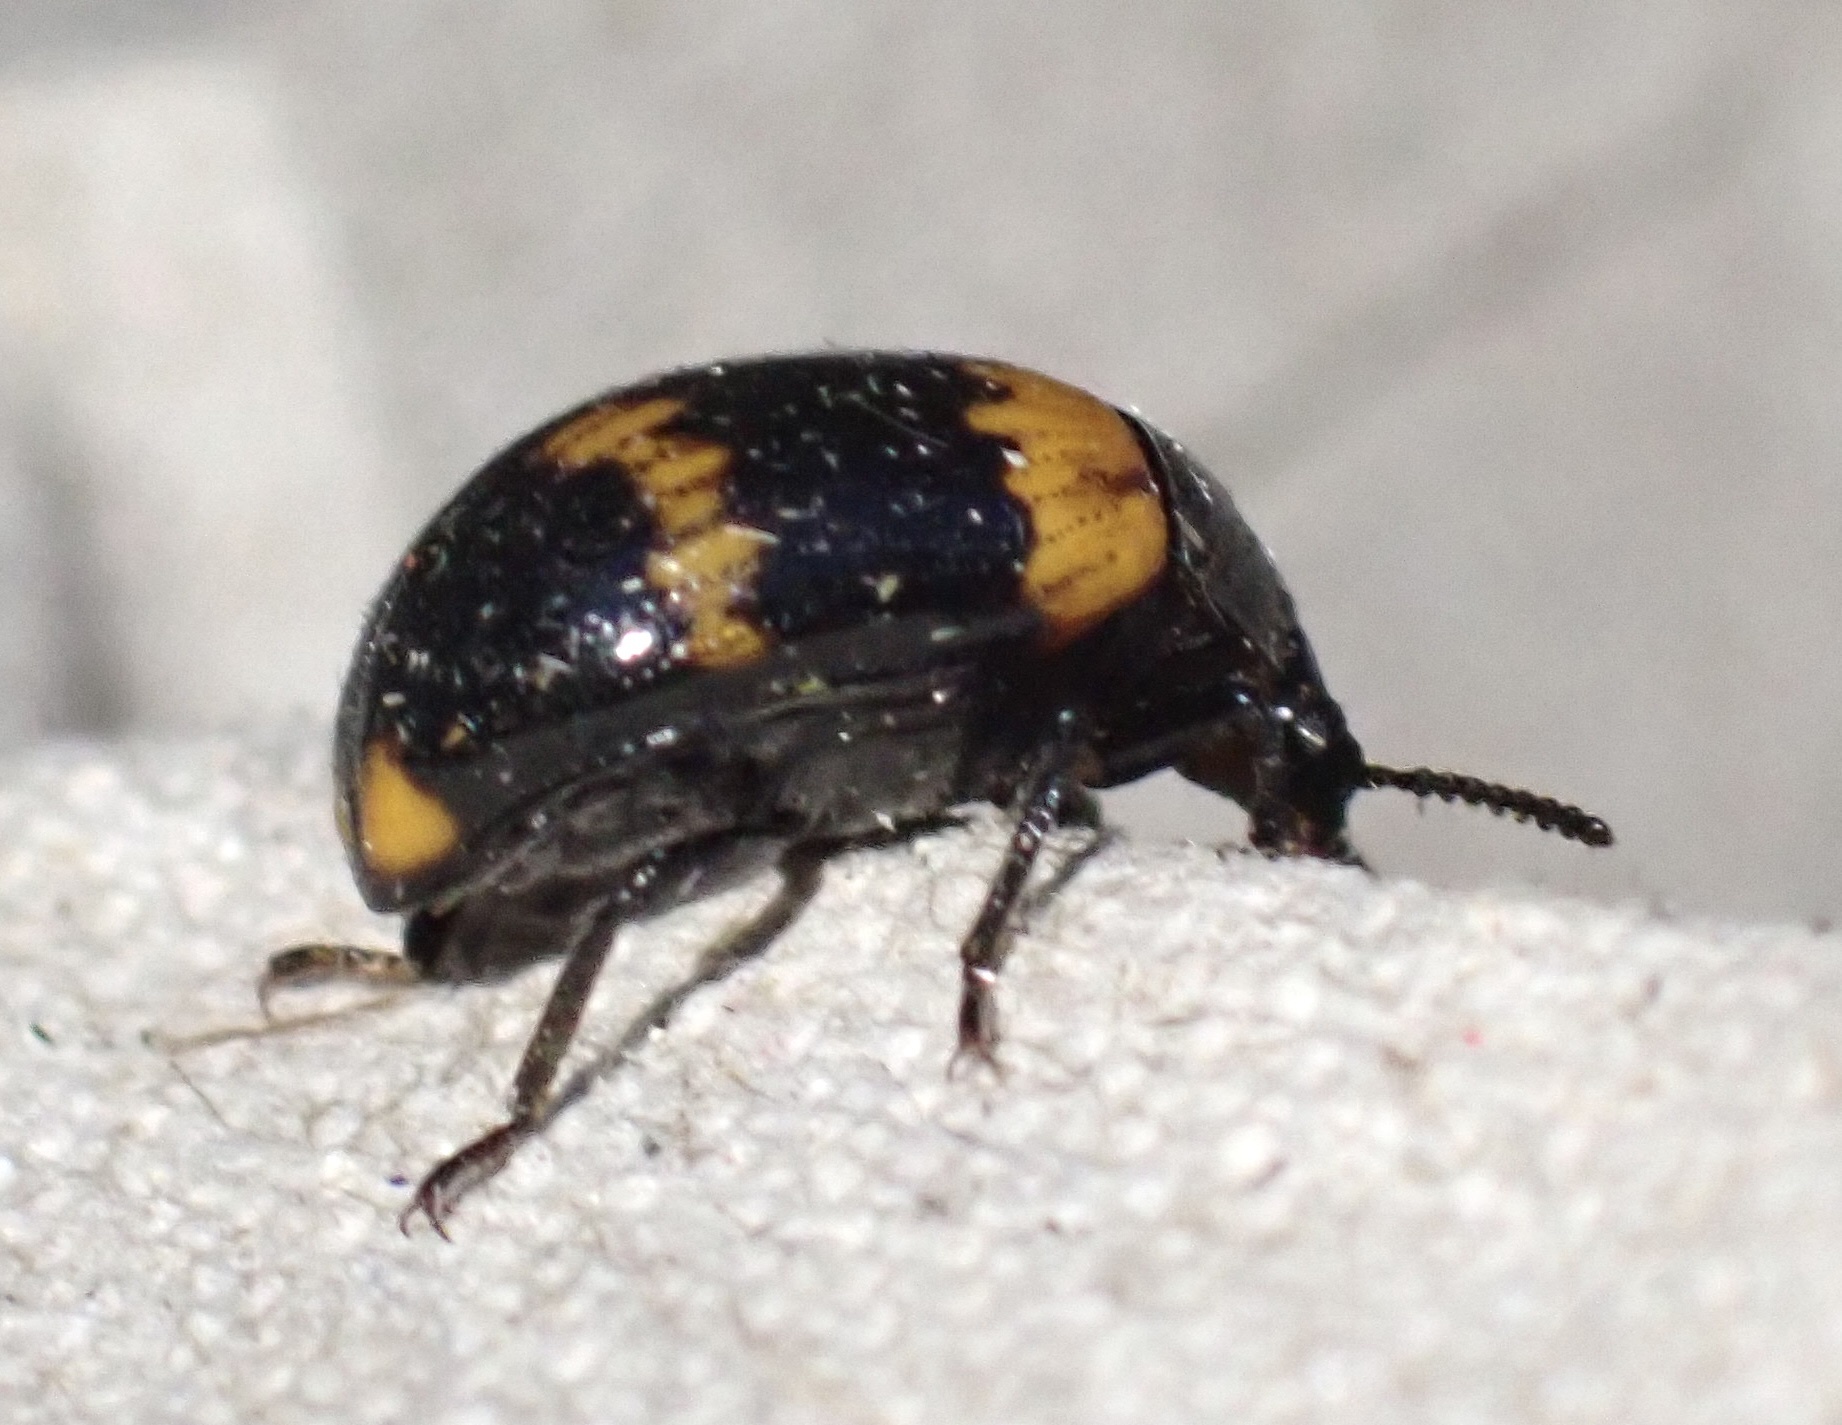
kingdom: Animalia
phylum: Arthropoda
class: Insecta
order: Coleoptera
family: Tenebrionidae
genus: Diaperis
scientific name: Diaperis boleti
